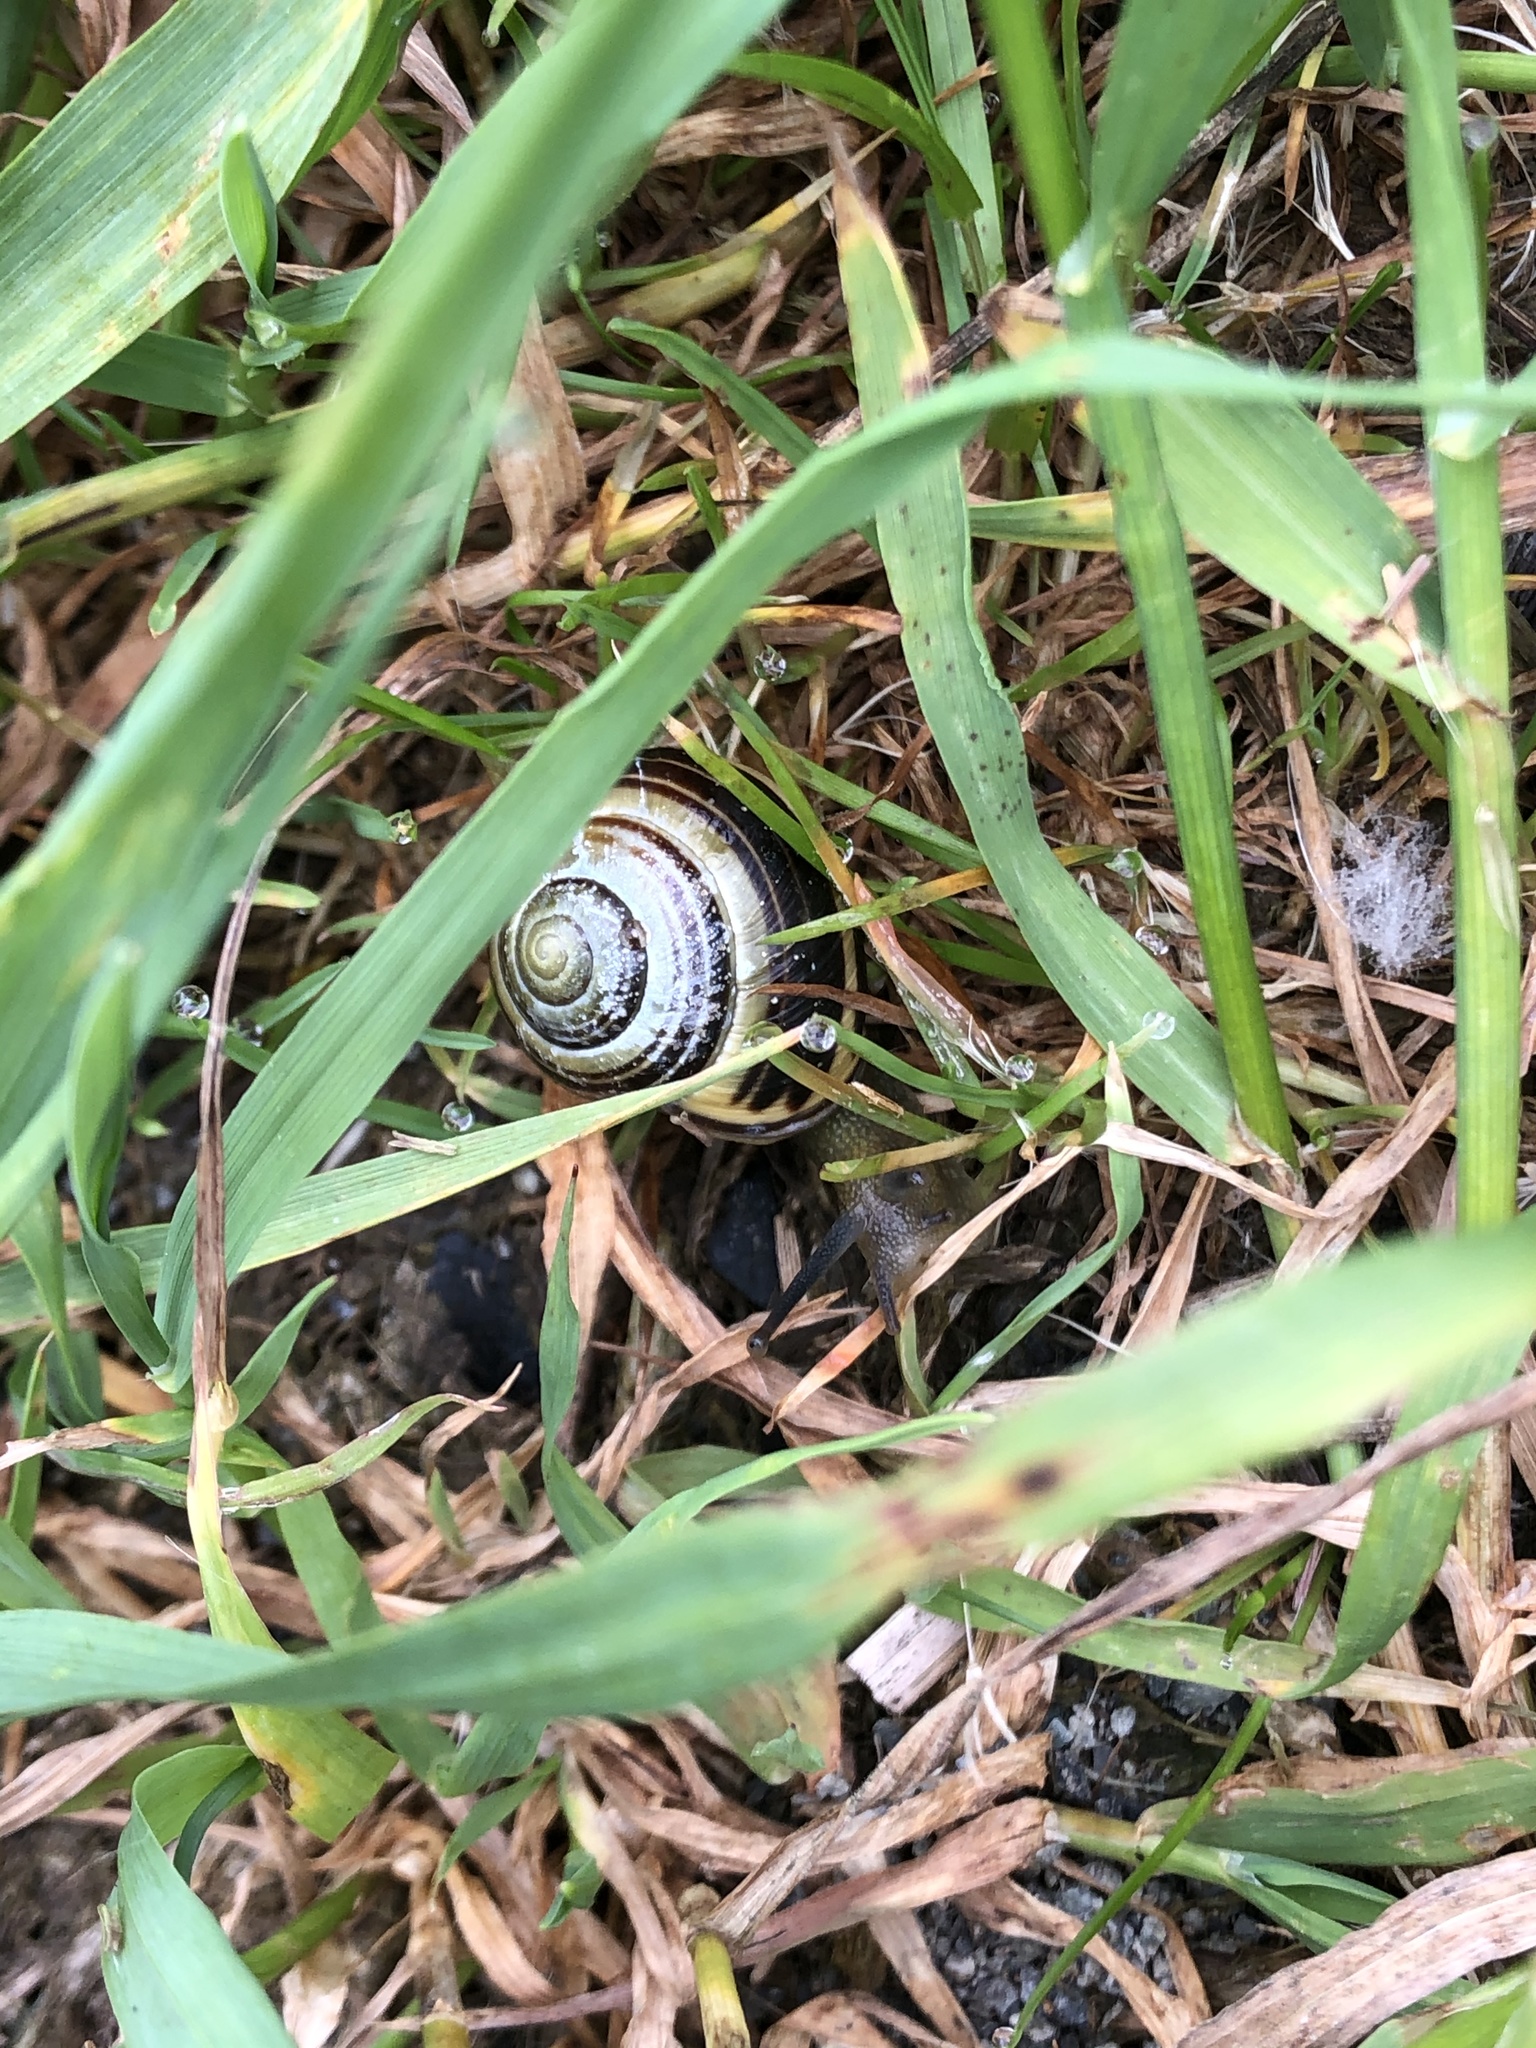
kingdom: Animalia
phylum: Mollusca
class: Gastropoda
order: Stylommatophora
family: Helicidae
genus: Cepaea
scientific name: Cepaea nemoralis
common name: Grovesnail
